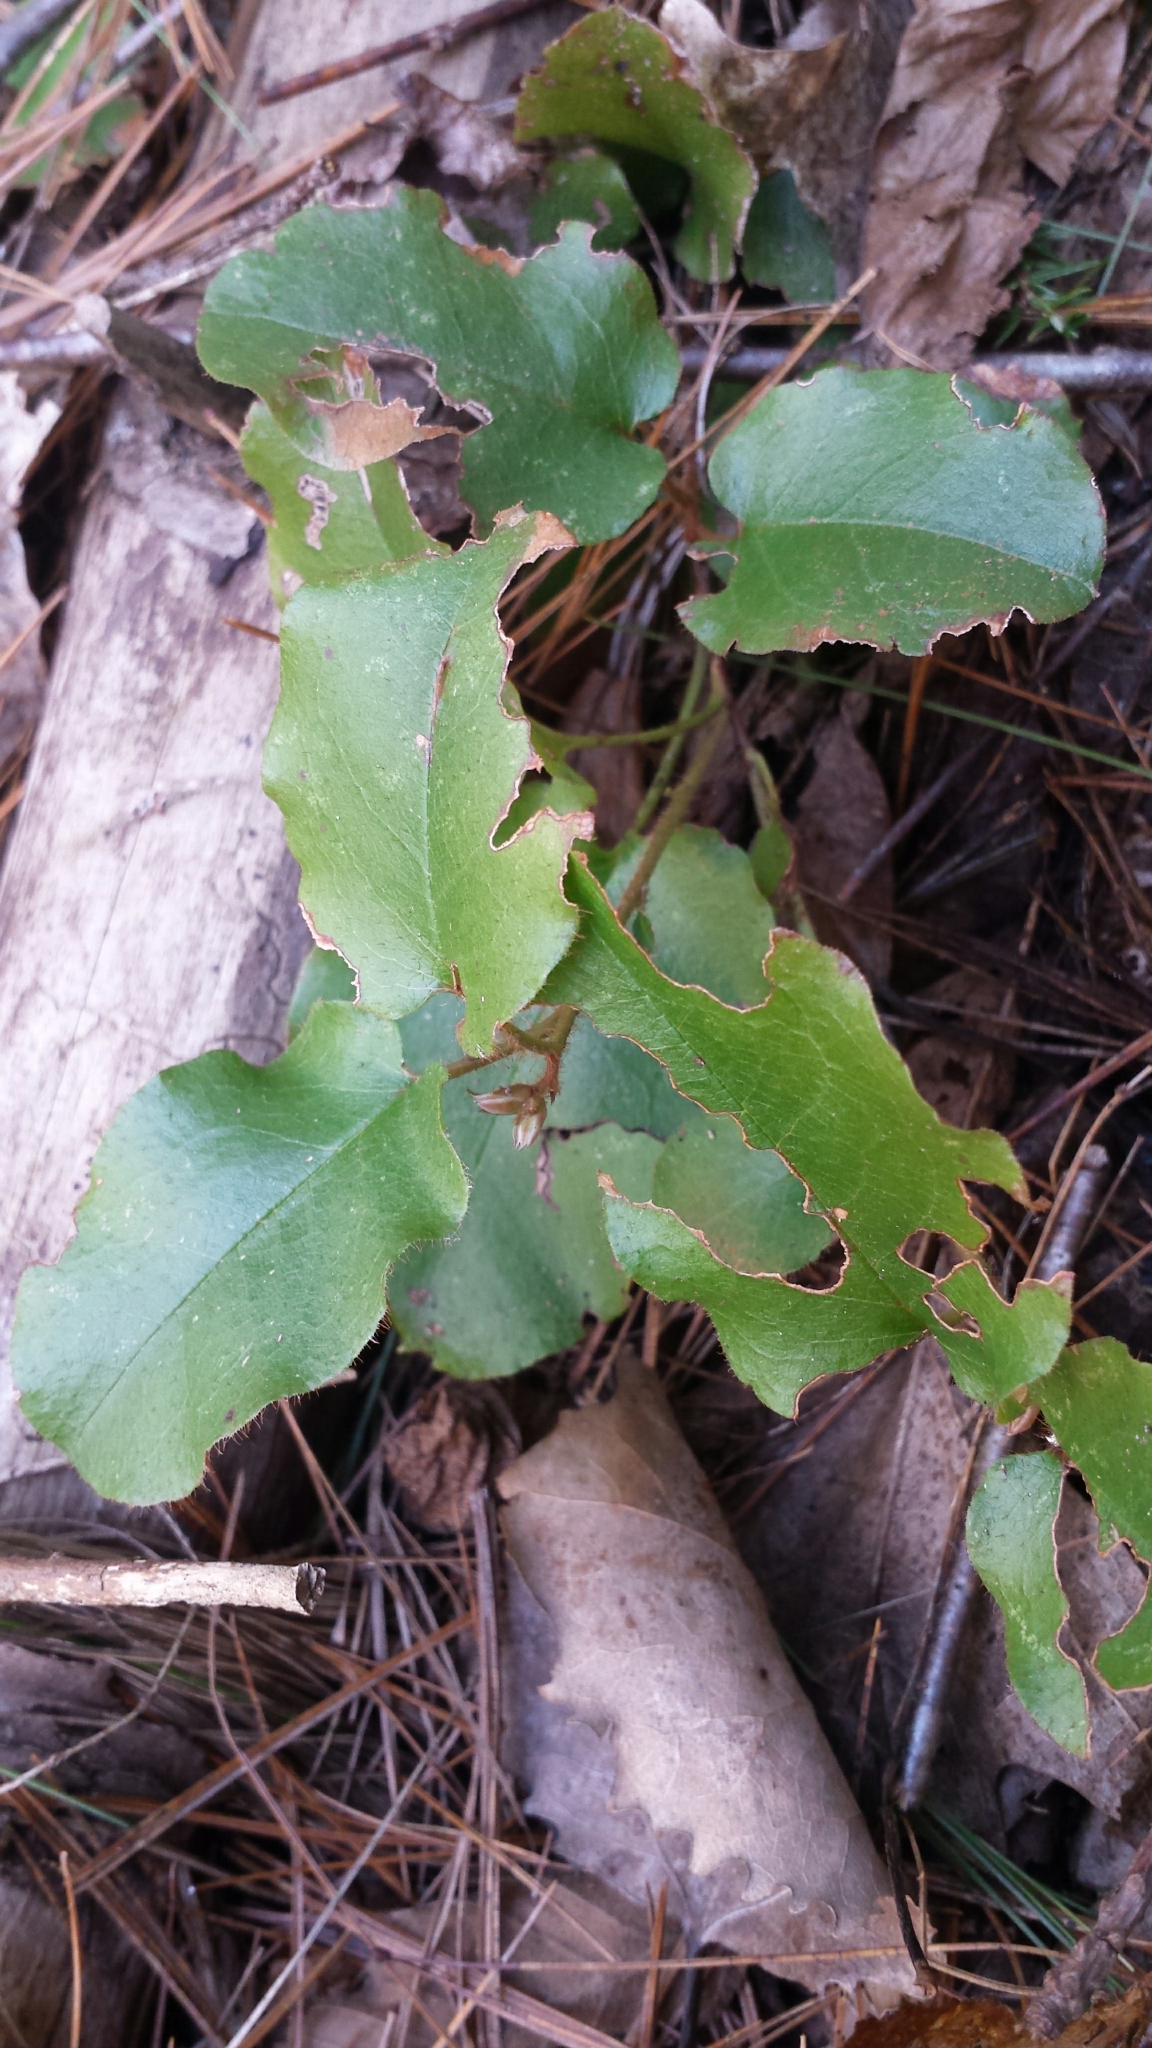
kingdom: Plantae
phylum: Tracheophyta
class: Magnoliopsida
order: Ericales
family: Ericaceae
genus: Epigaea
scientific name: Epigaea repens
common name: Gravelroot
